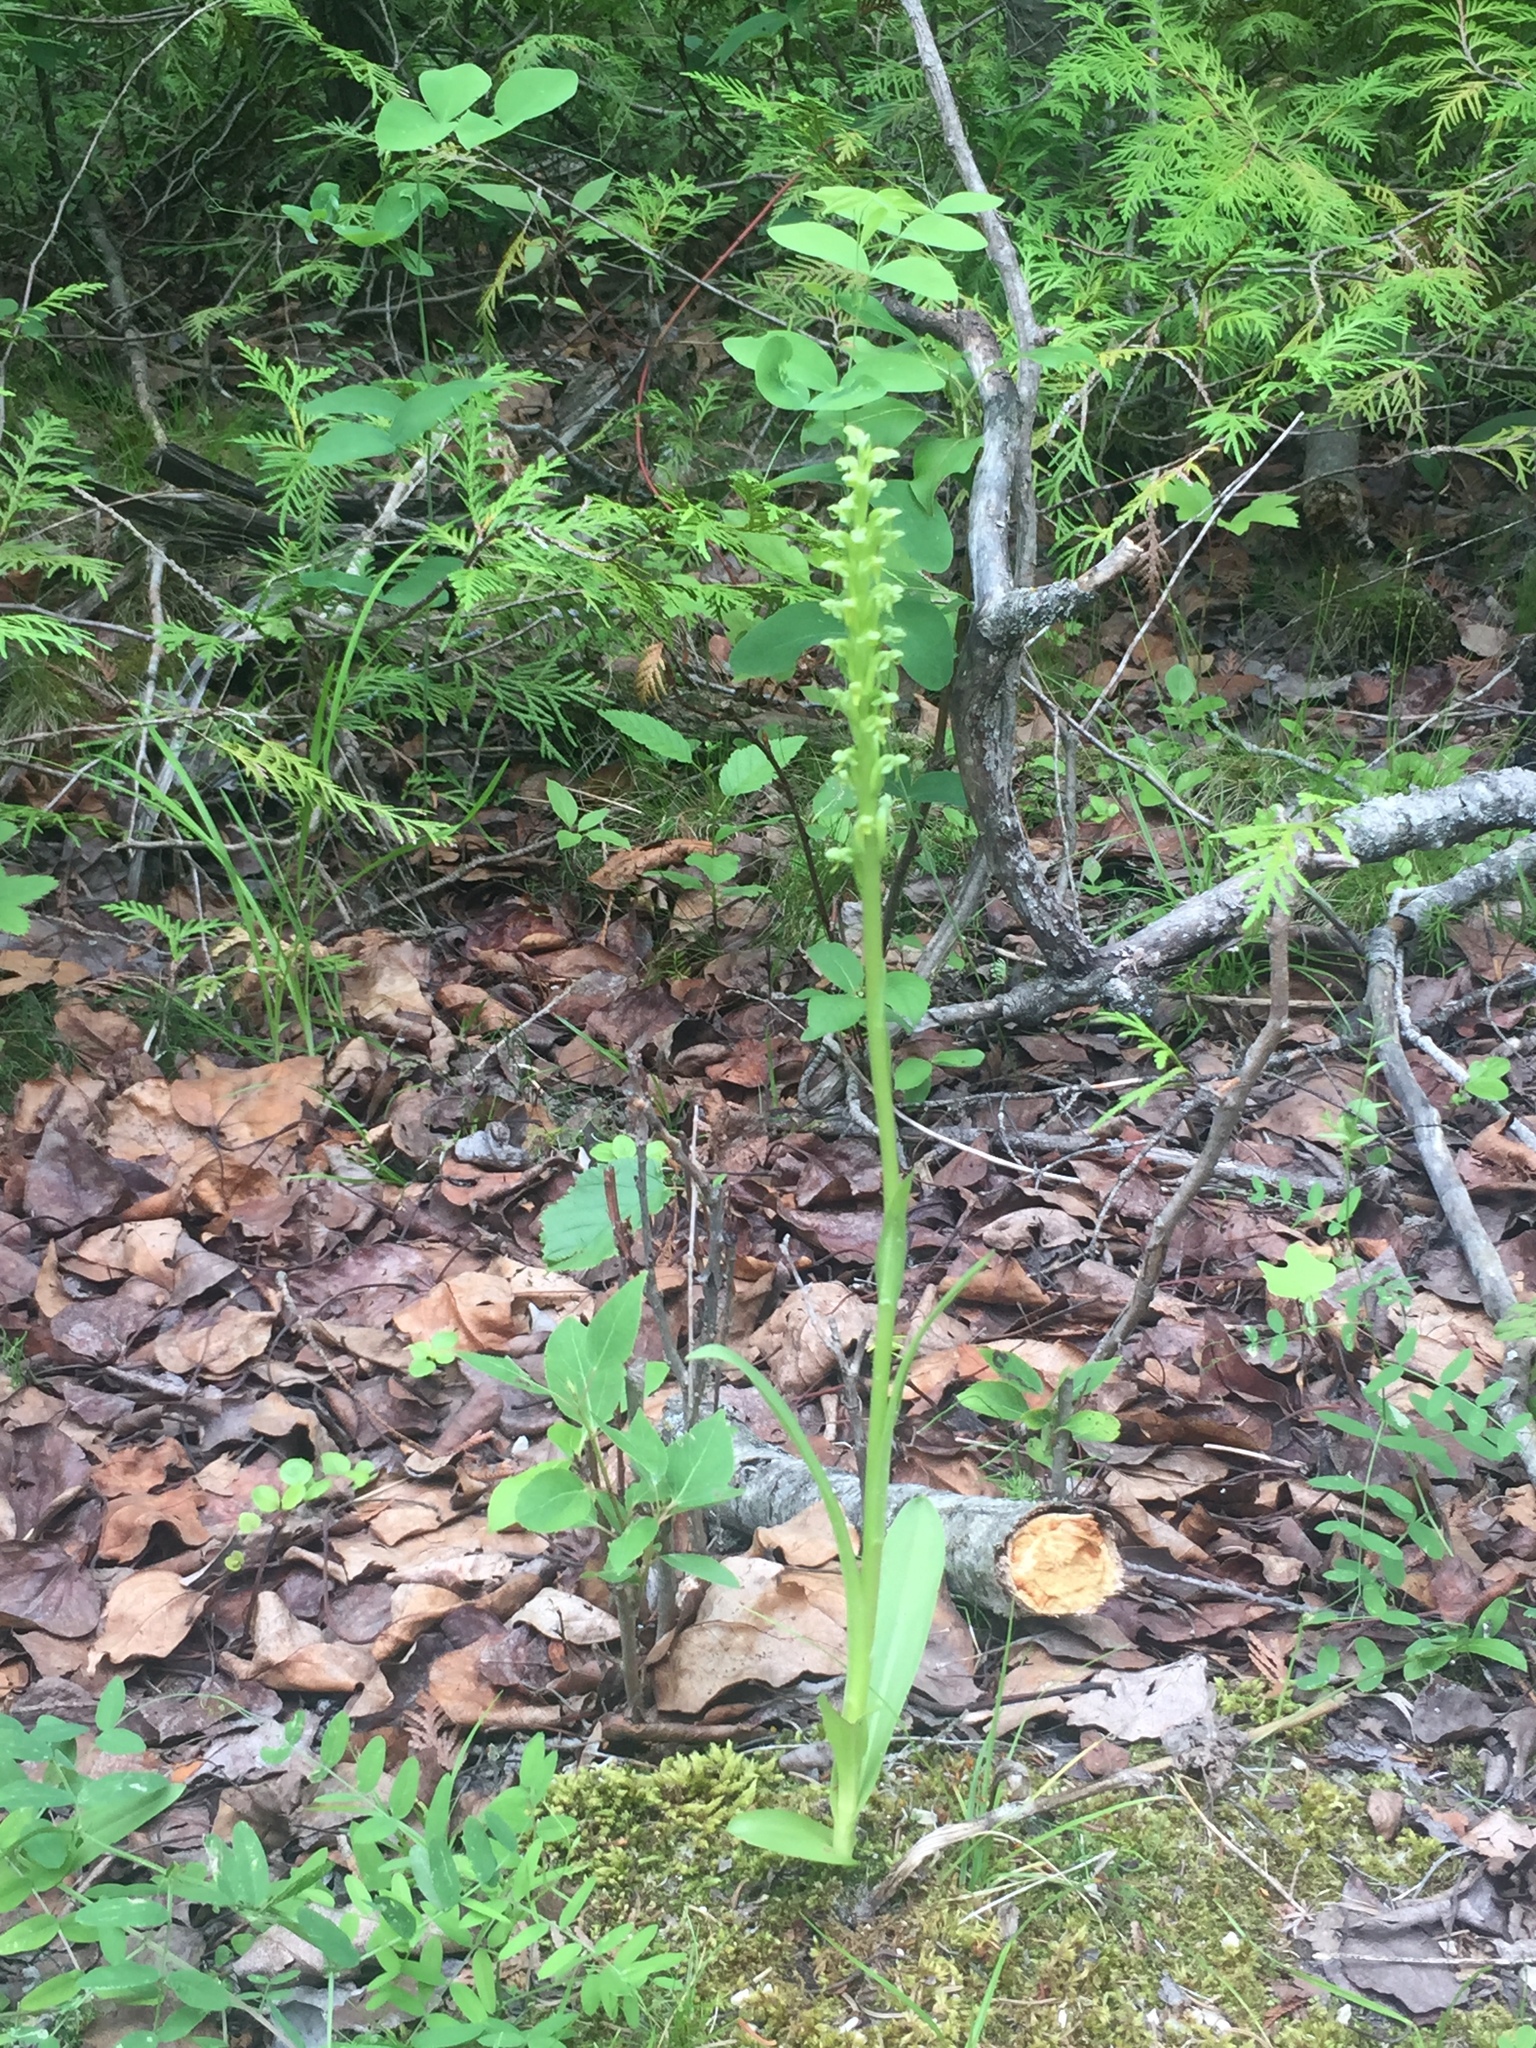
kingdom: Plantae
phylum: Tracheophyta
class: Liliopsida
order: Asparagales
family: Orchidaceae
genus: Platanthera
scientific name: Platanthera aquilonis
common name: Northern green orchid
